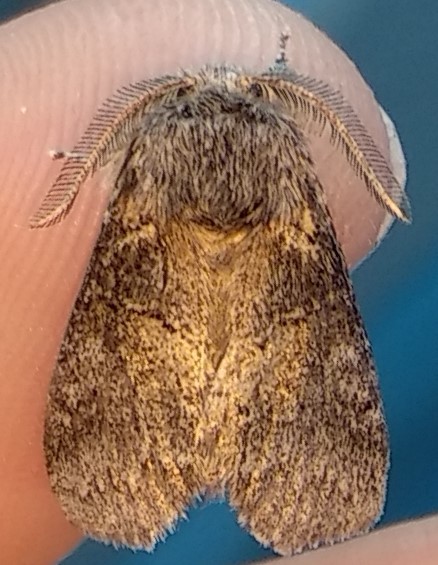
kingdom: Animalia
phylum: Arthropoda
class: Insecta
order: Lepidoptera
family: Notodontidae
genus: Gluphisia
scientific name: Gluphisia septentrionis
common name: Common gluphisia
